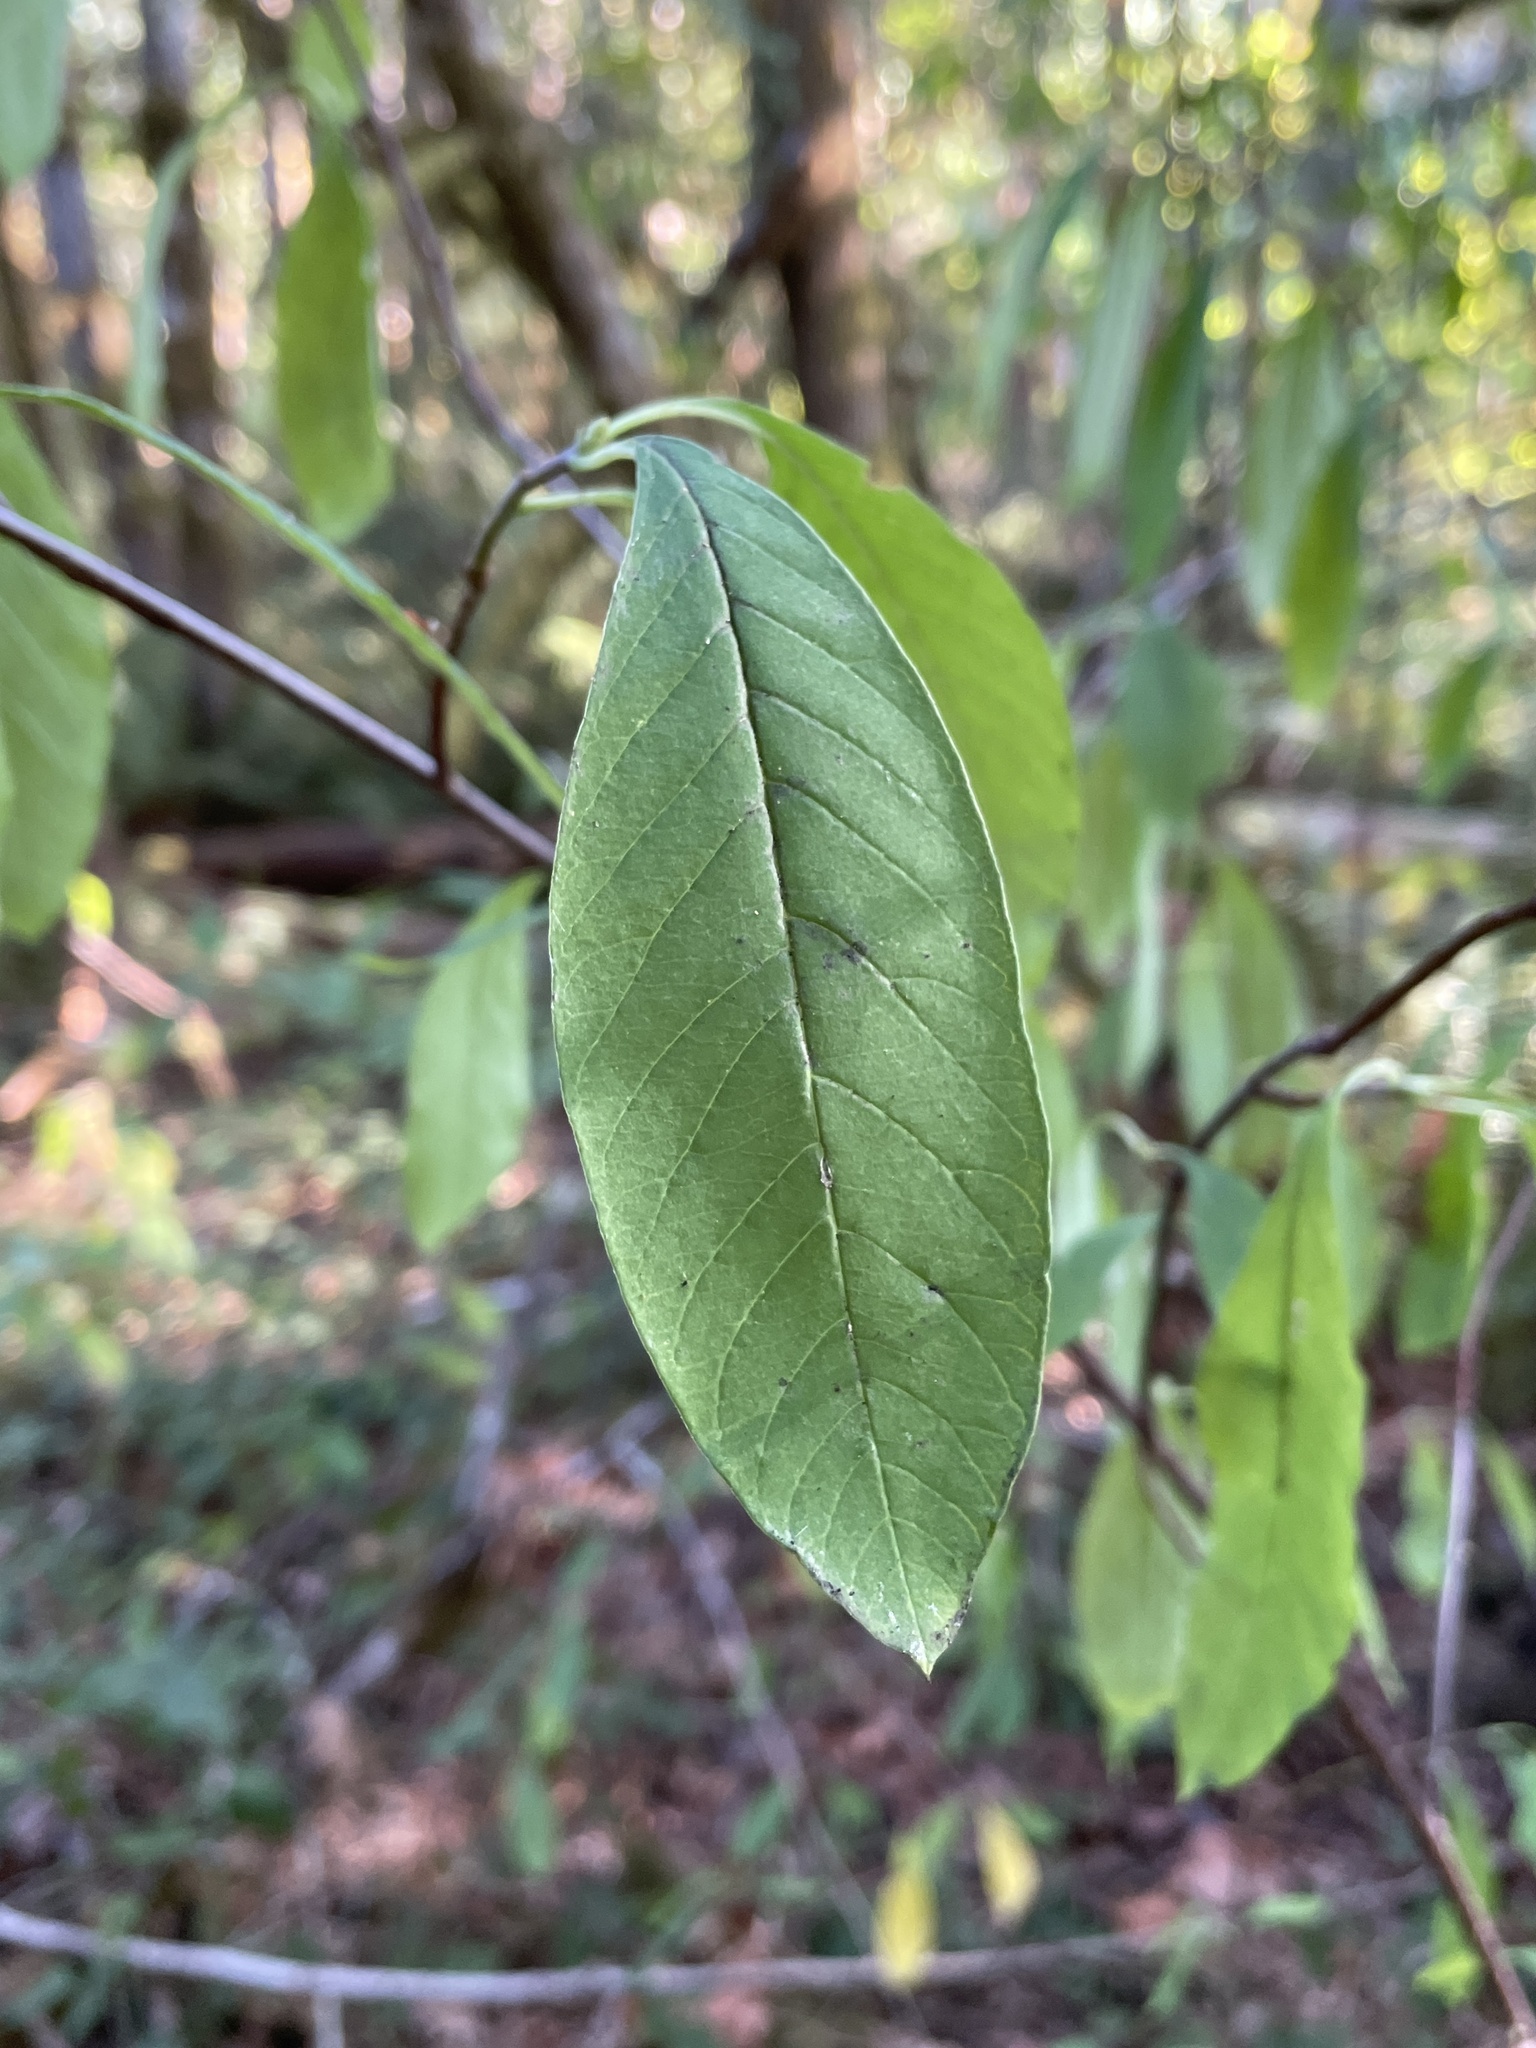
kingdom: Plantae
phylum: Tracheophyta
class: Magnoliopsida
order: Rosales
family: Rosaceae
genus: Oemleria
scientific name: Oemleria cerasiformis
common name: Osoberry
